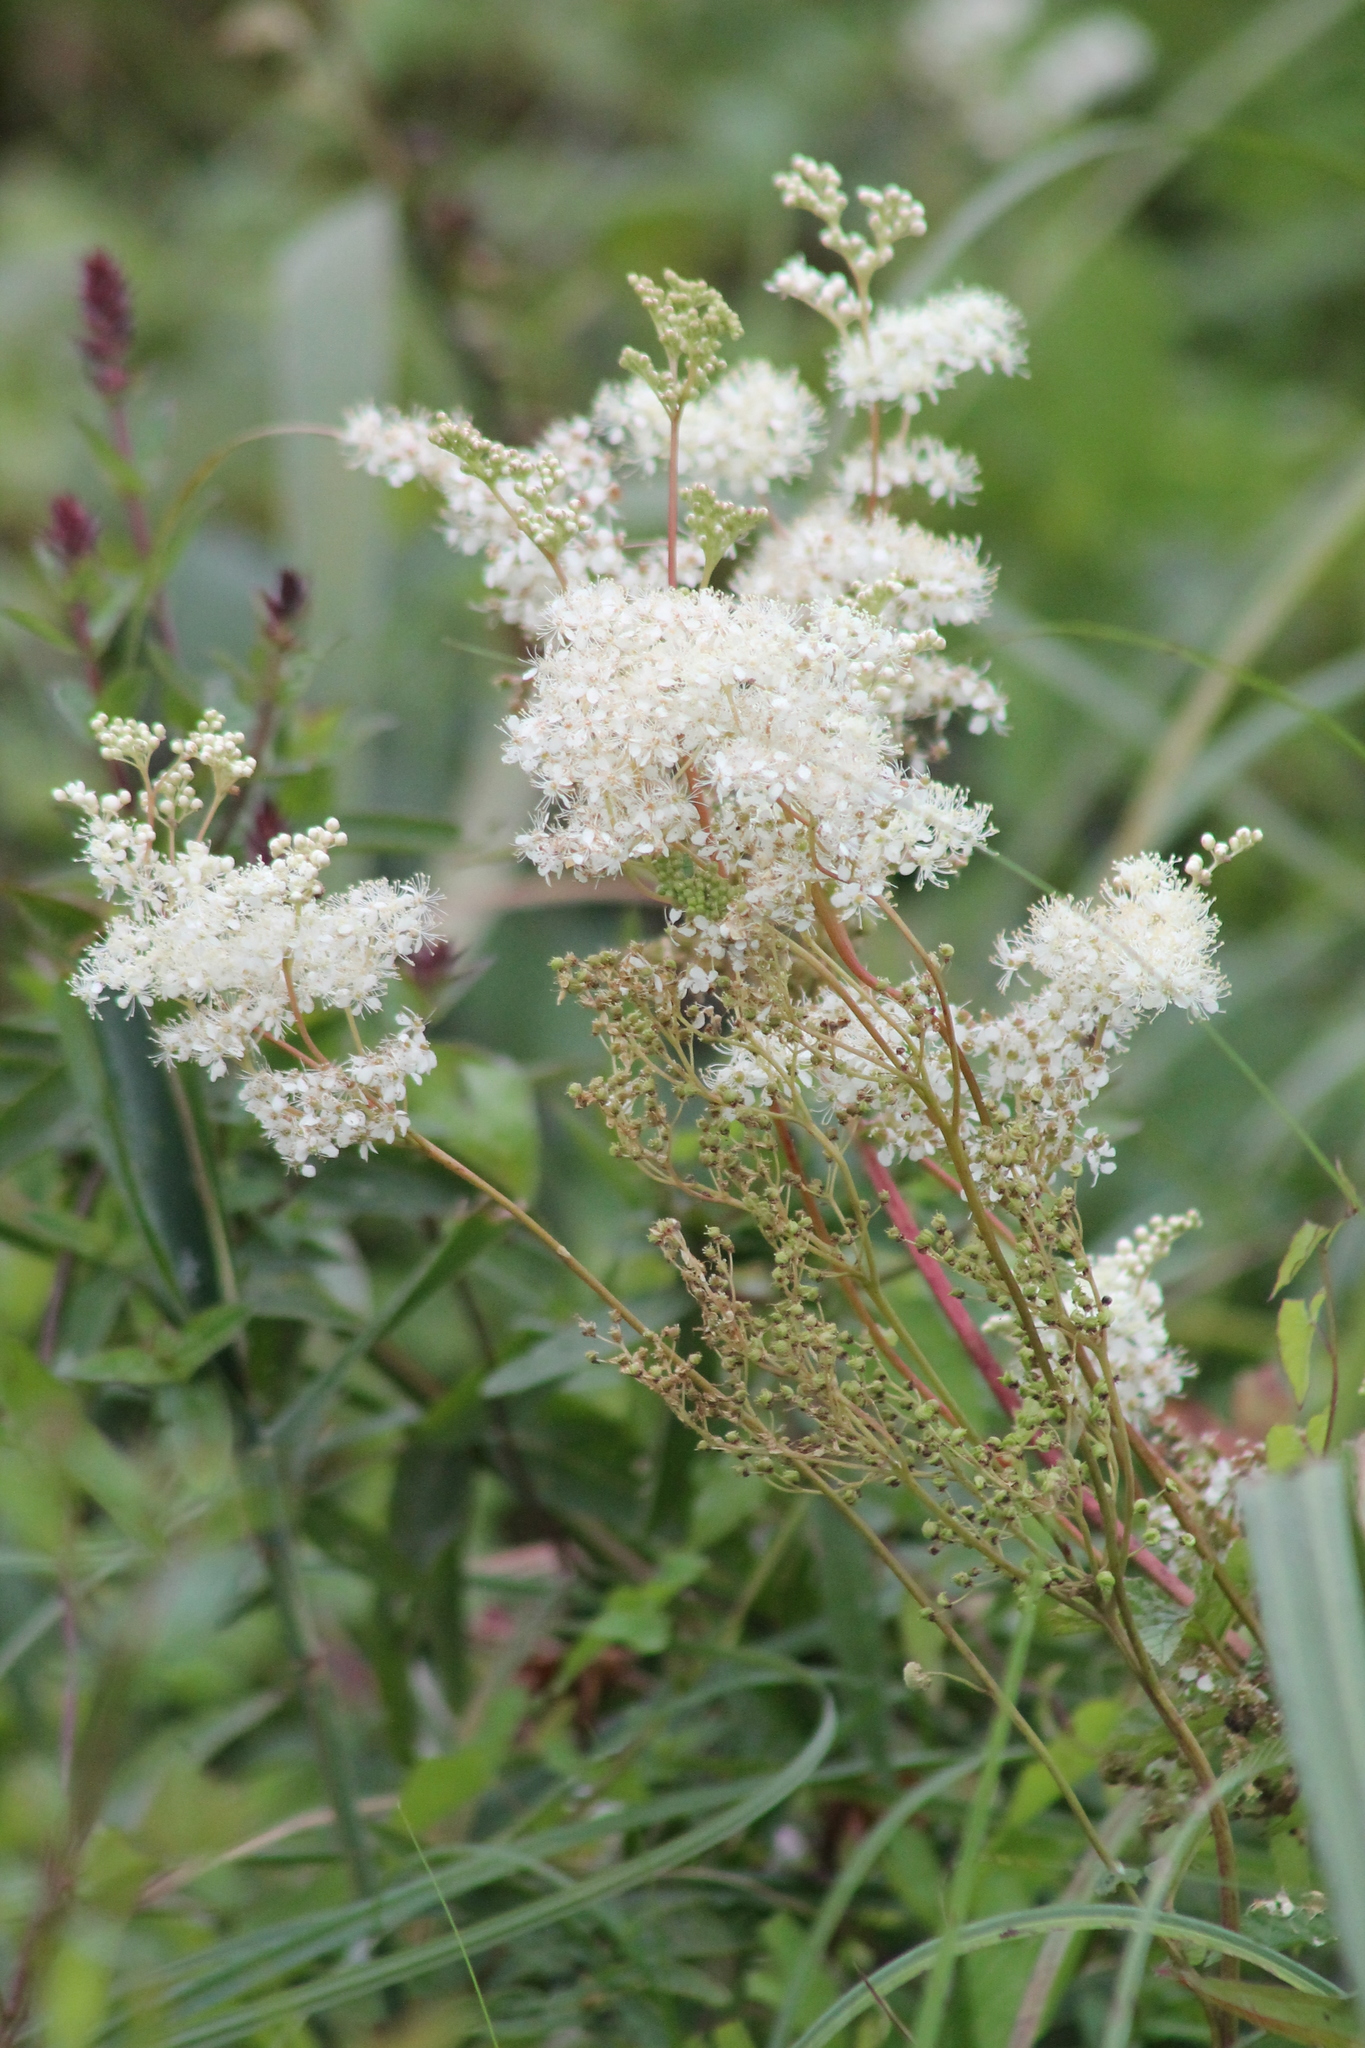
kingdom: Plantae
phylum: Tracheophyta
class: Magnoliopsida
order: Rosales
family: Rosaceae
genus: Filipendula
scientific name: Filipendula ulmaria
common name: Meadowsweet
